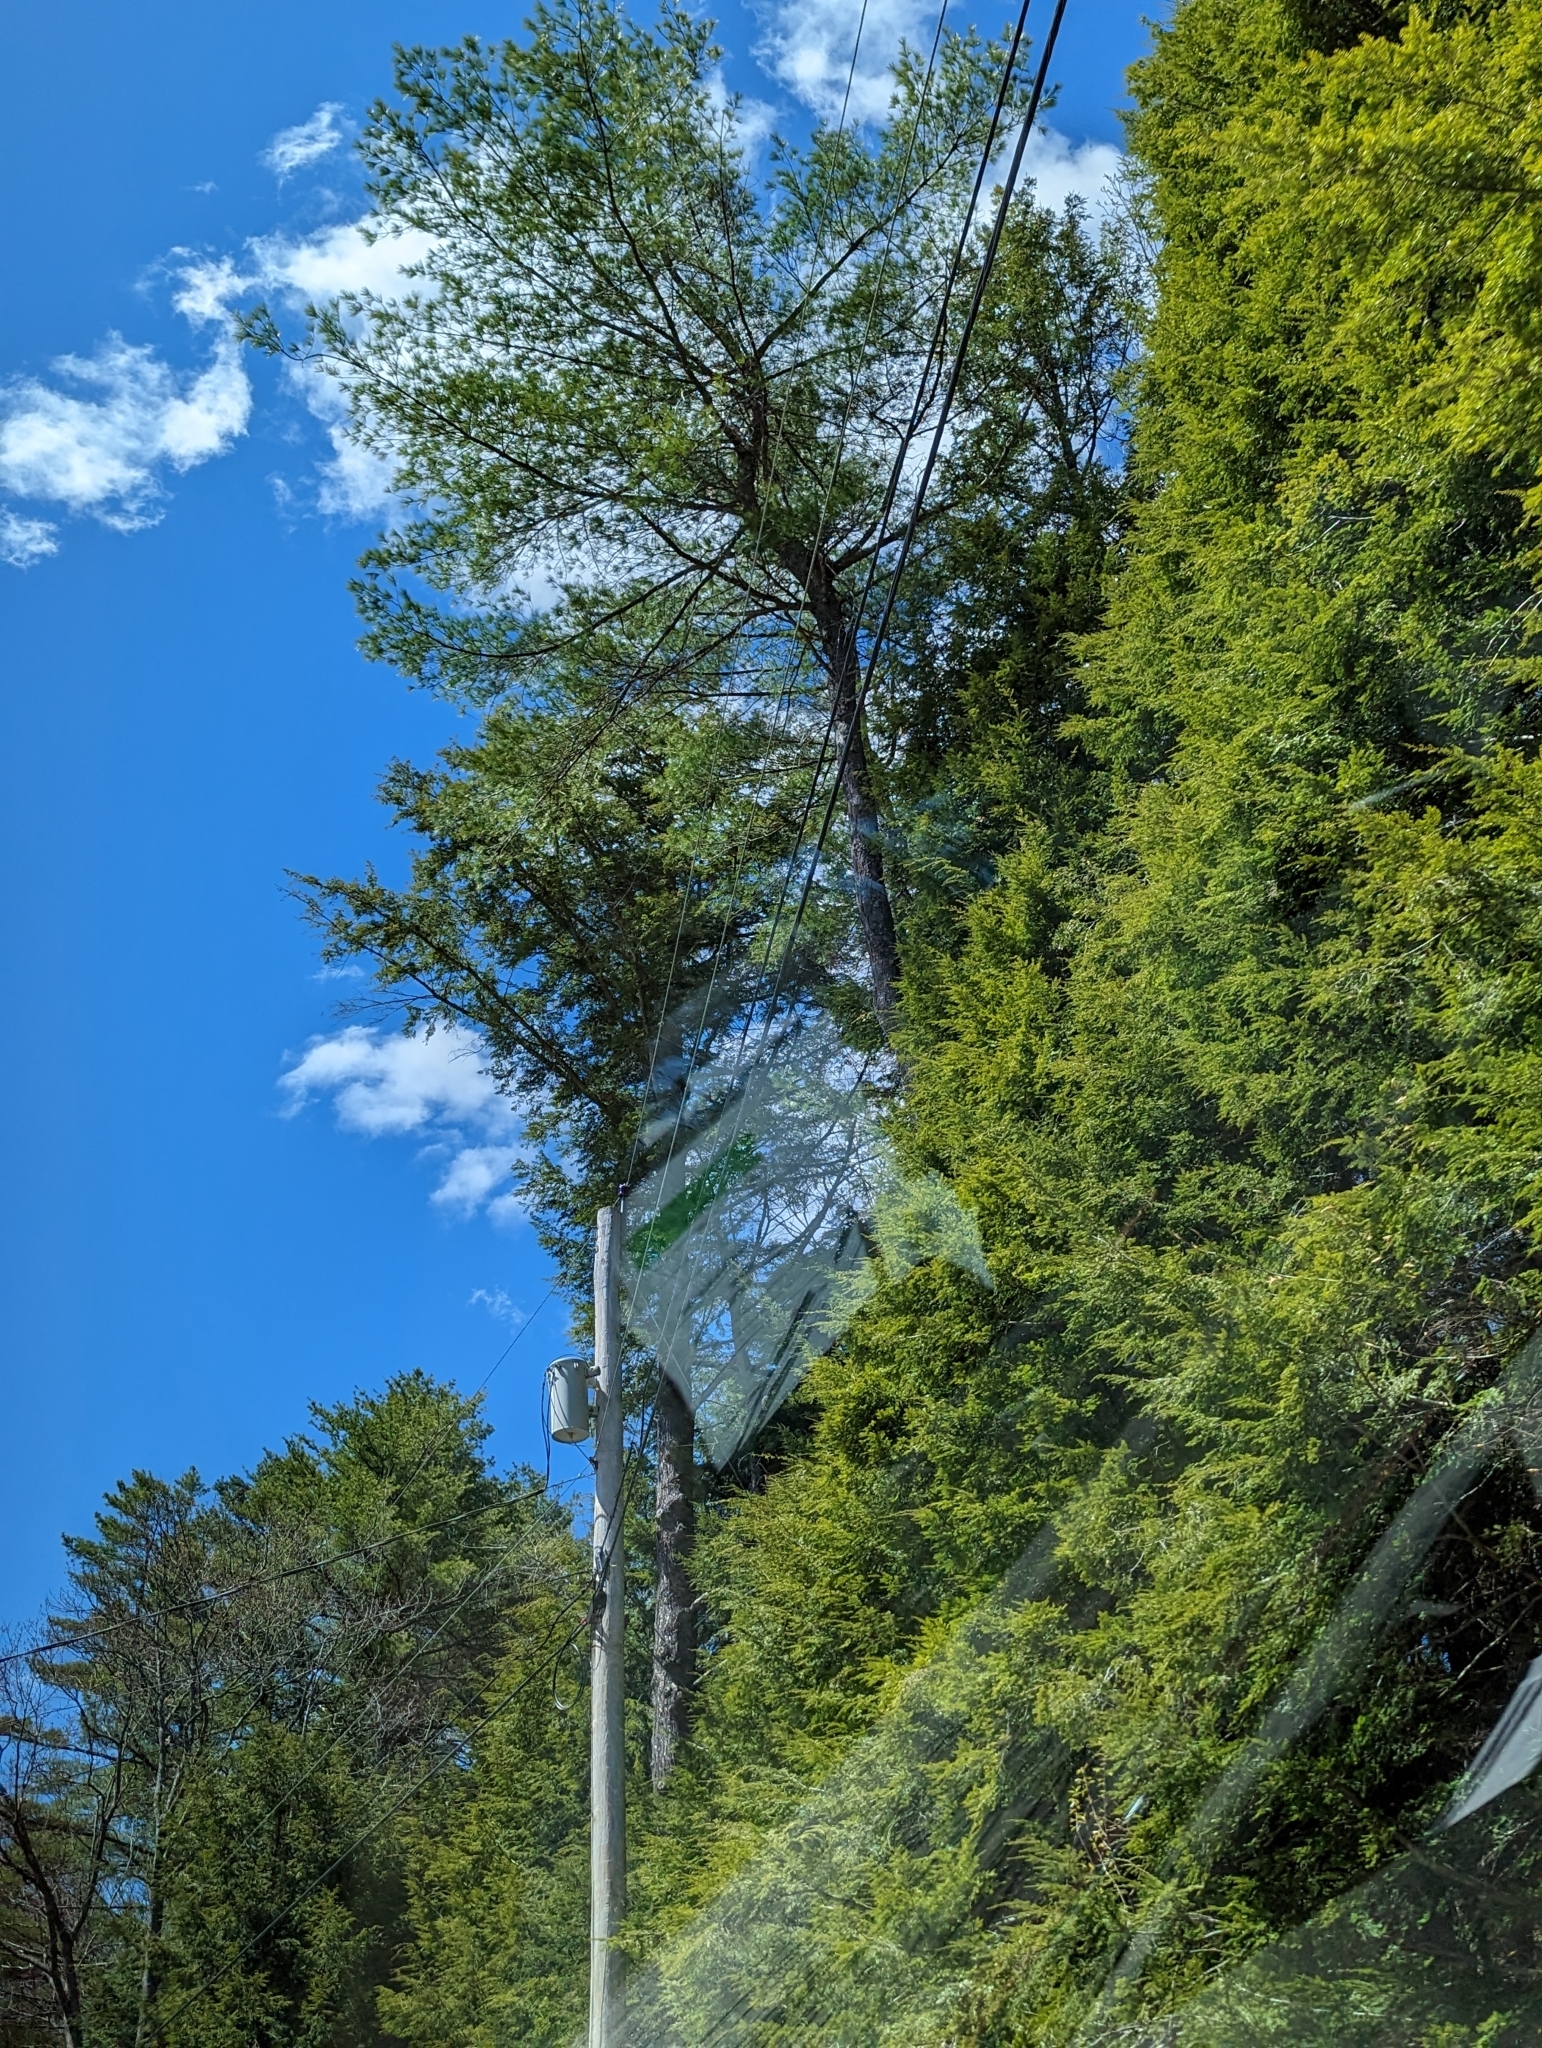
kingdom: Plantae
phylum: Tracheophyta
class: Pinopsida
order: Pinales
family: Pinaceae
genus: Pinus
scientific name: Pinus strobus
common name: Weymouth pine
